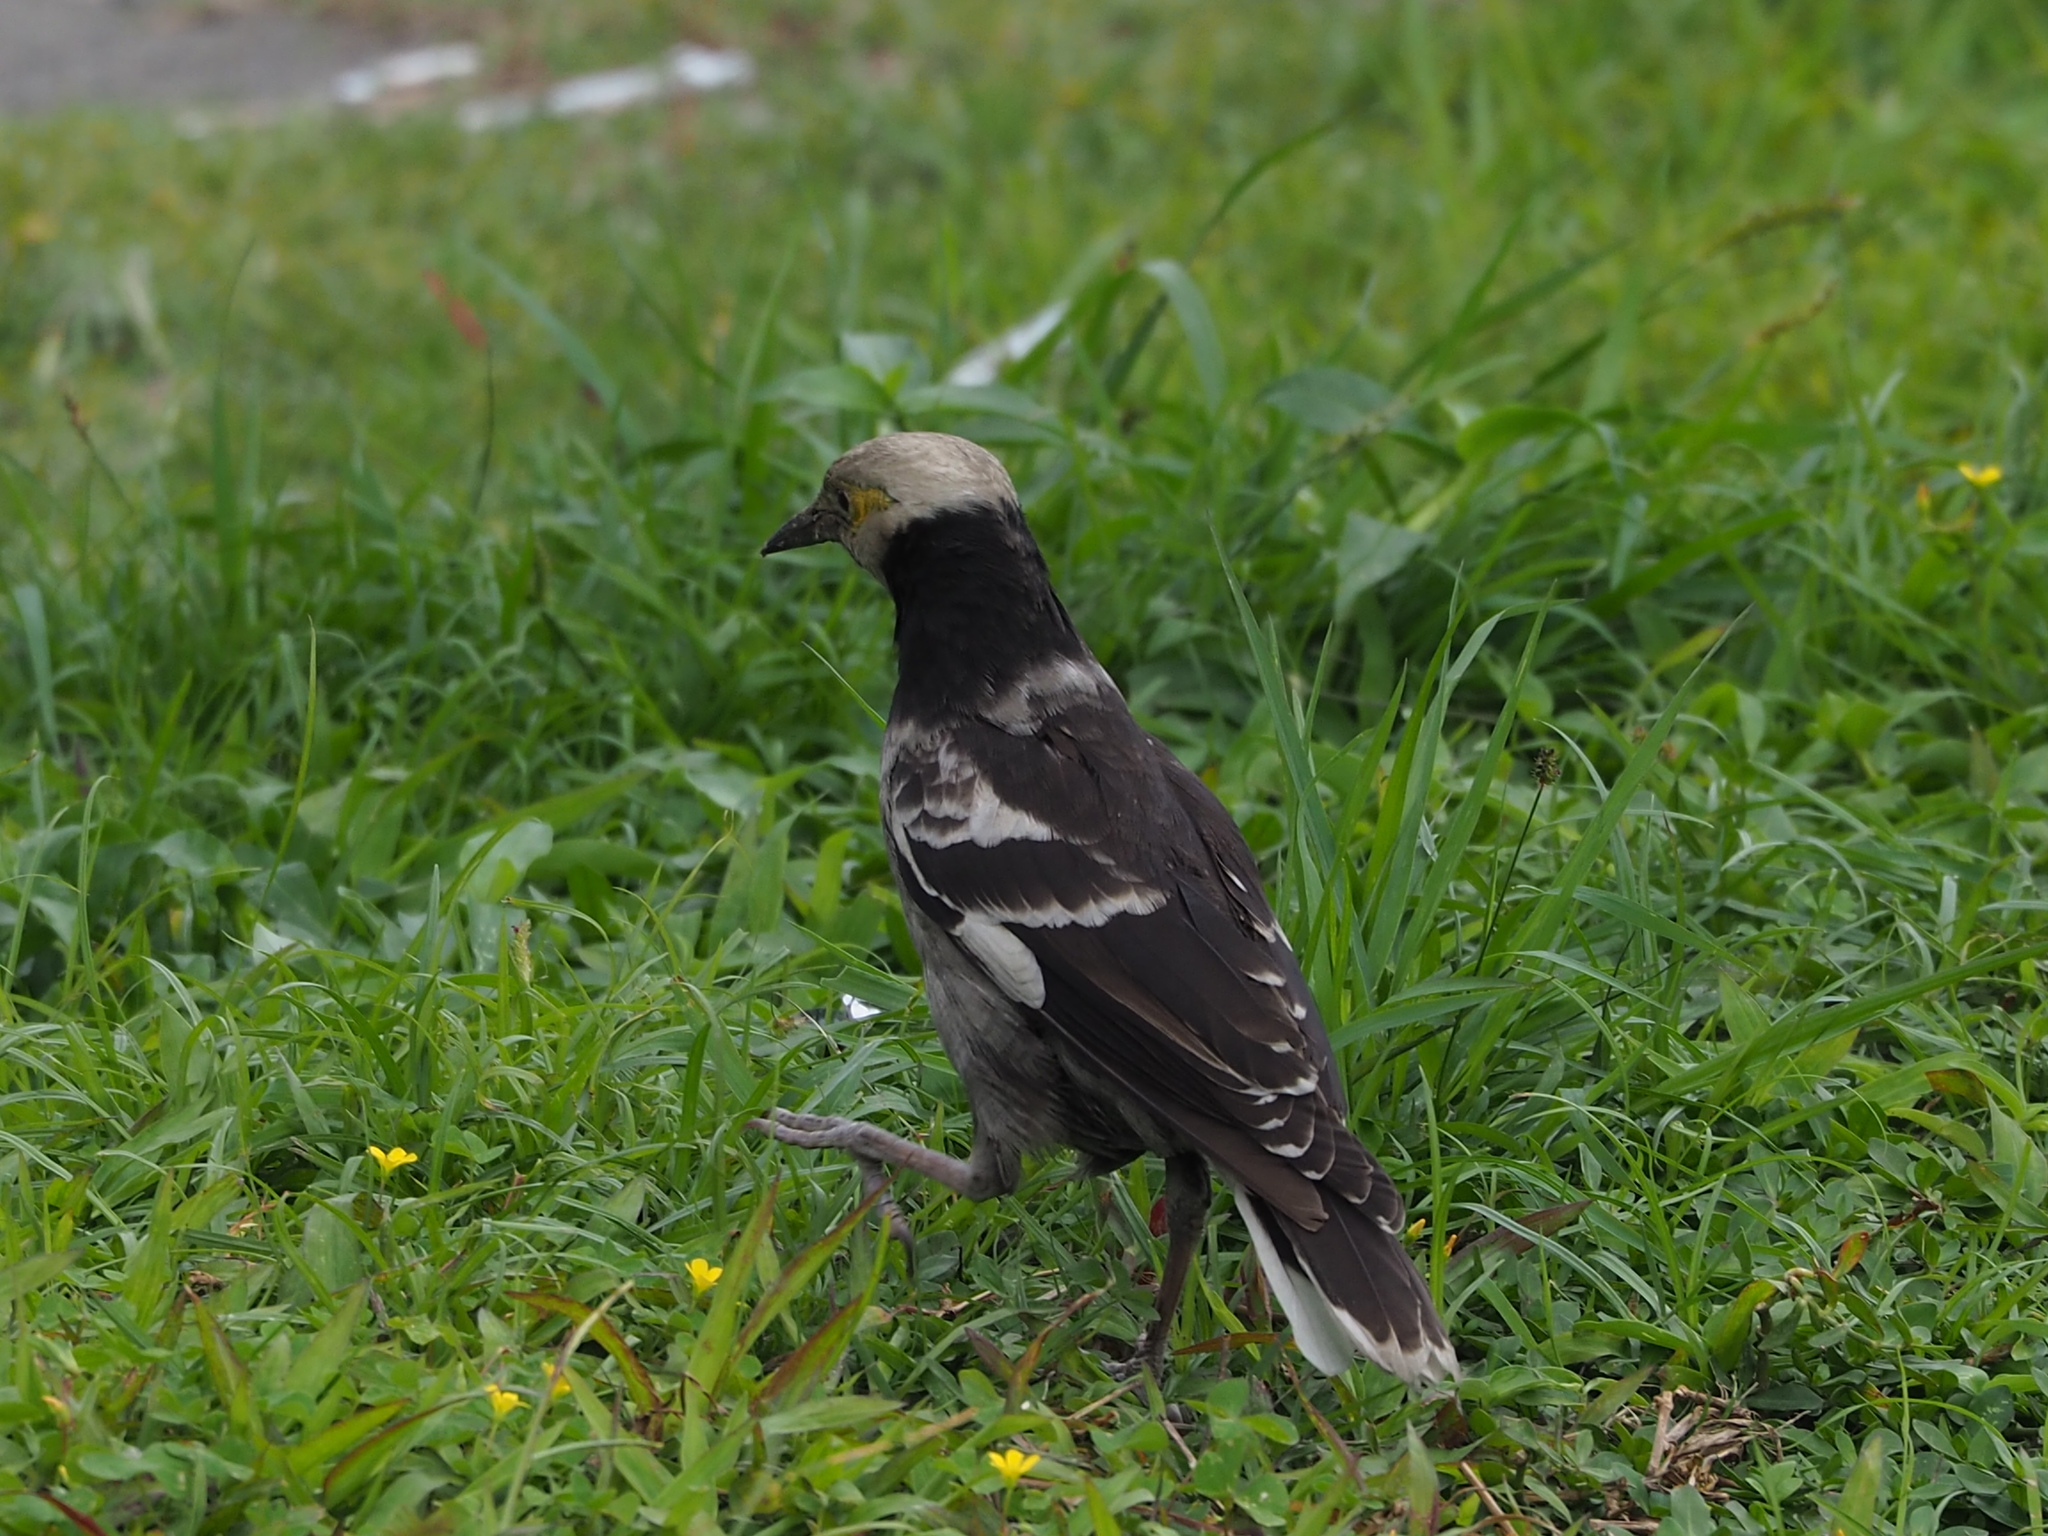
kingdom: Animalia
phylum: Chordata
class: Aves
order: Passeriformes
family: Sturnidae
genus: Gracupica
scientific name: Gracupica nigricollis
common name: Black-collared starling
